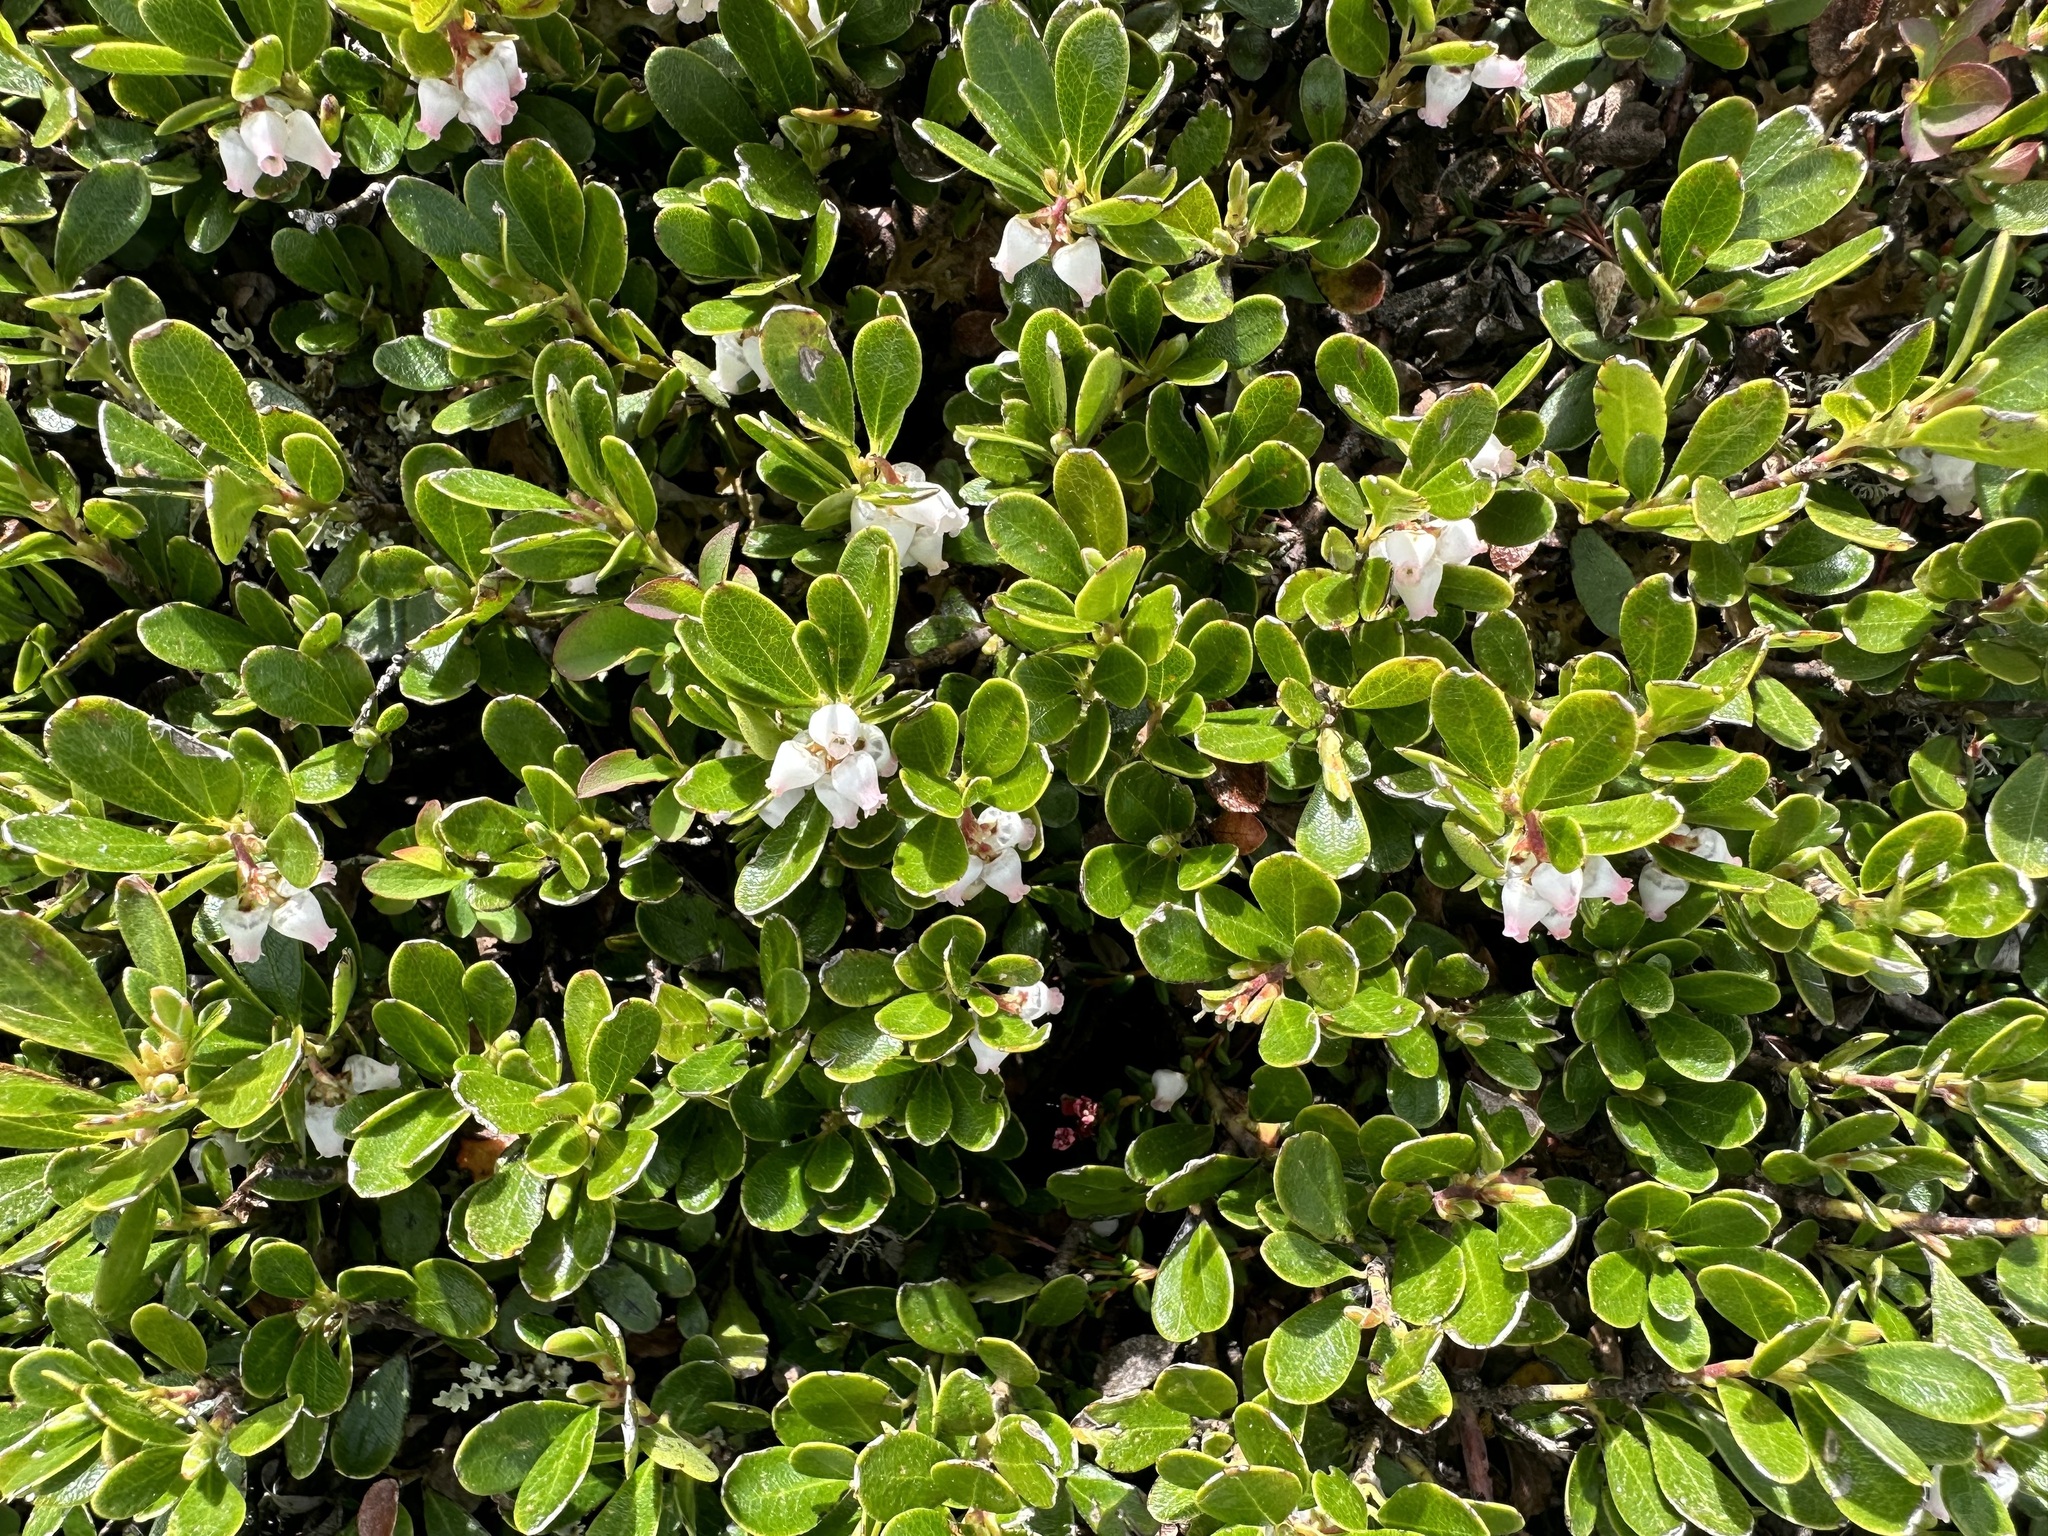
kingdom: Plantae
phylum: Tracheophyta
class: Magnoliopsida
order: Ericales
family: Ericaceae
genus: Arctostaphylos
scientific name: Arctostaphylos uva-ursi
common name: Bearberry
